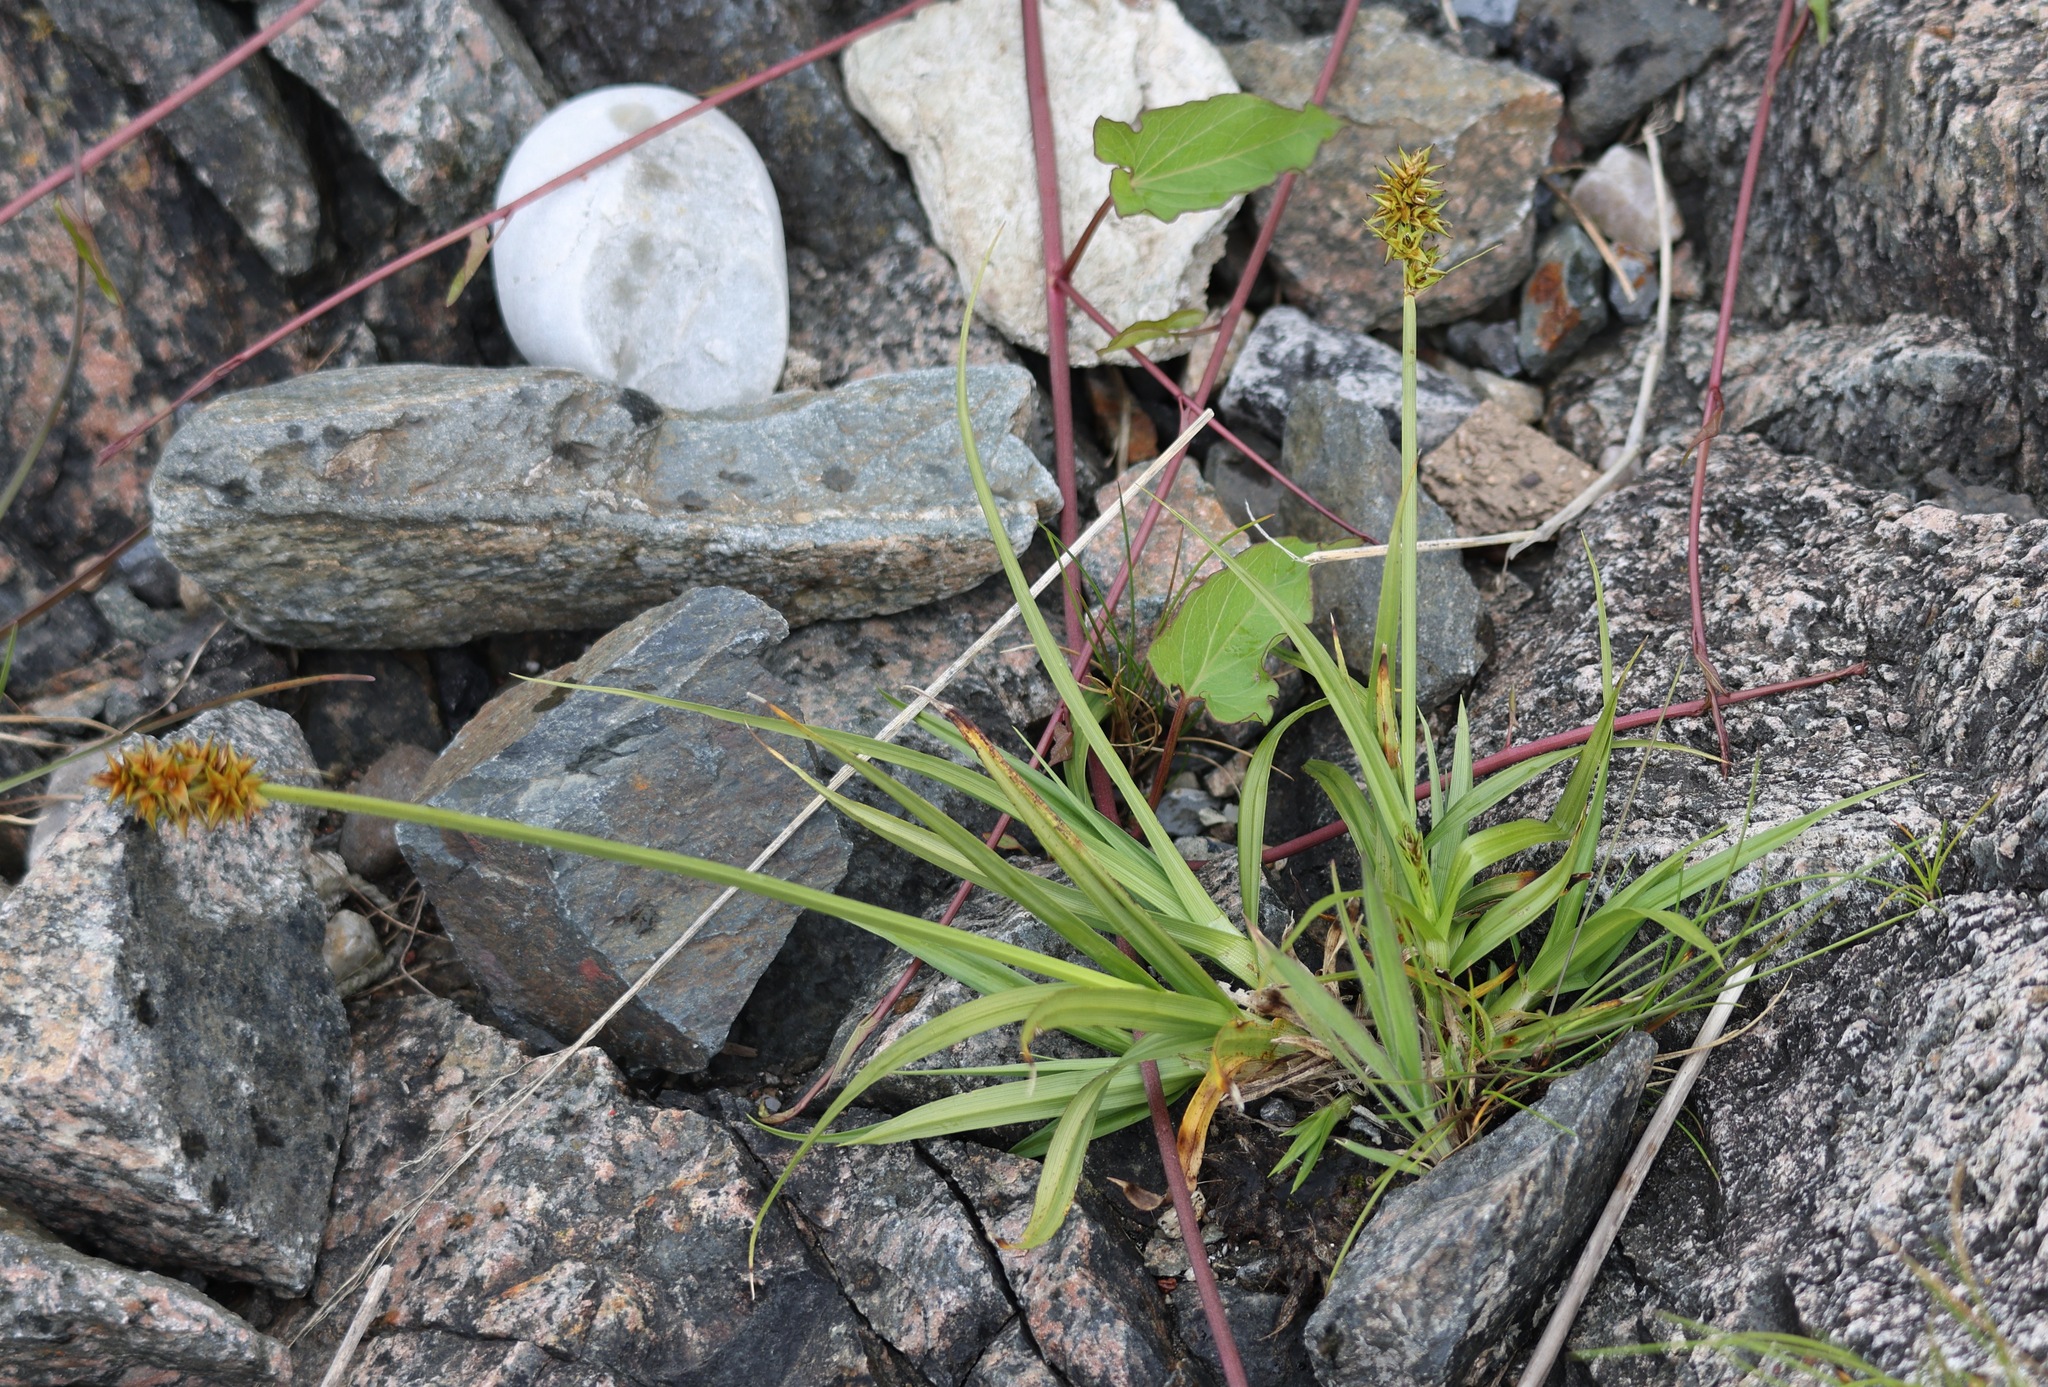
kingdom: Plantae
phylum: Tracheophyta
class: Liliopsida
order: Poales
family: Cyperaceae
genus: Carex
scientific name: Carex otrubae
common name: False fox-sedge
